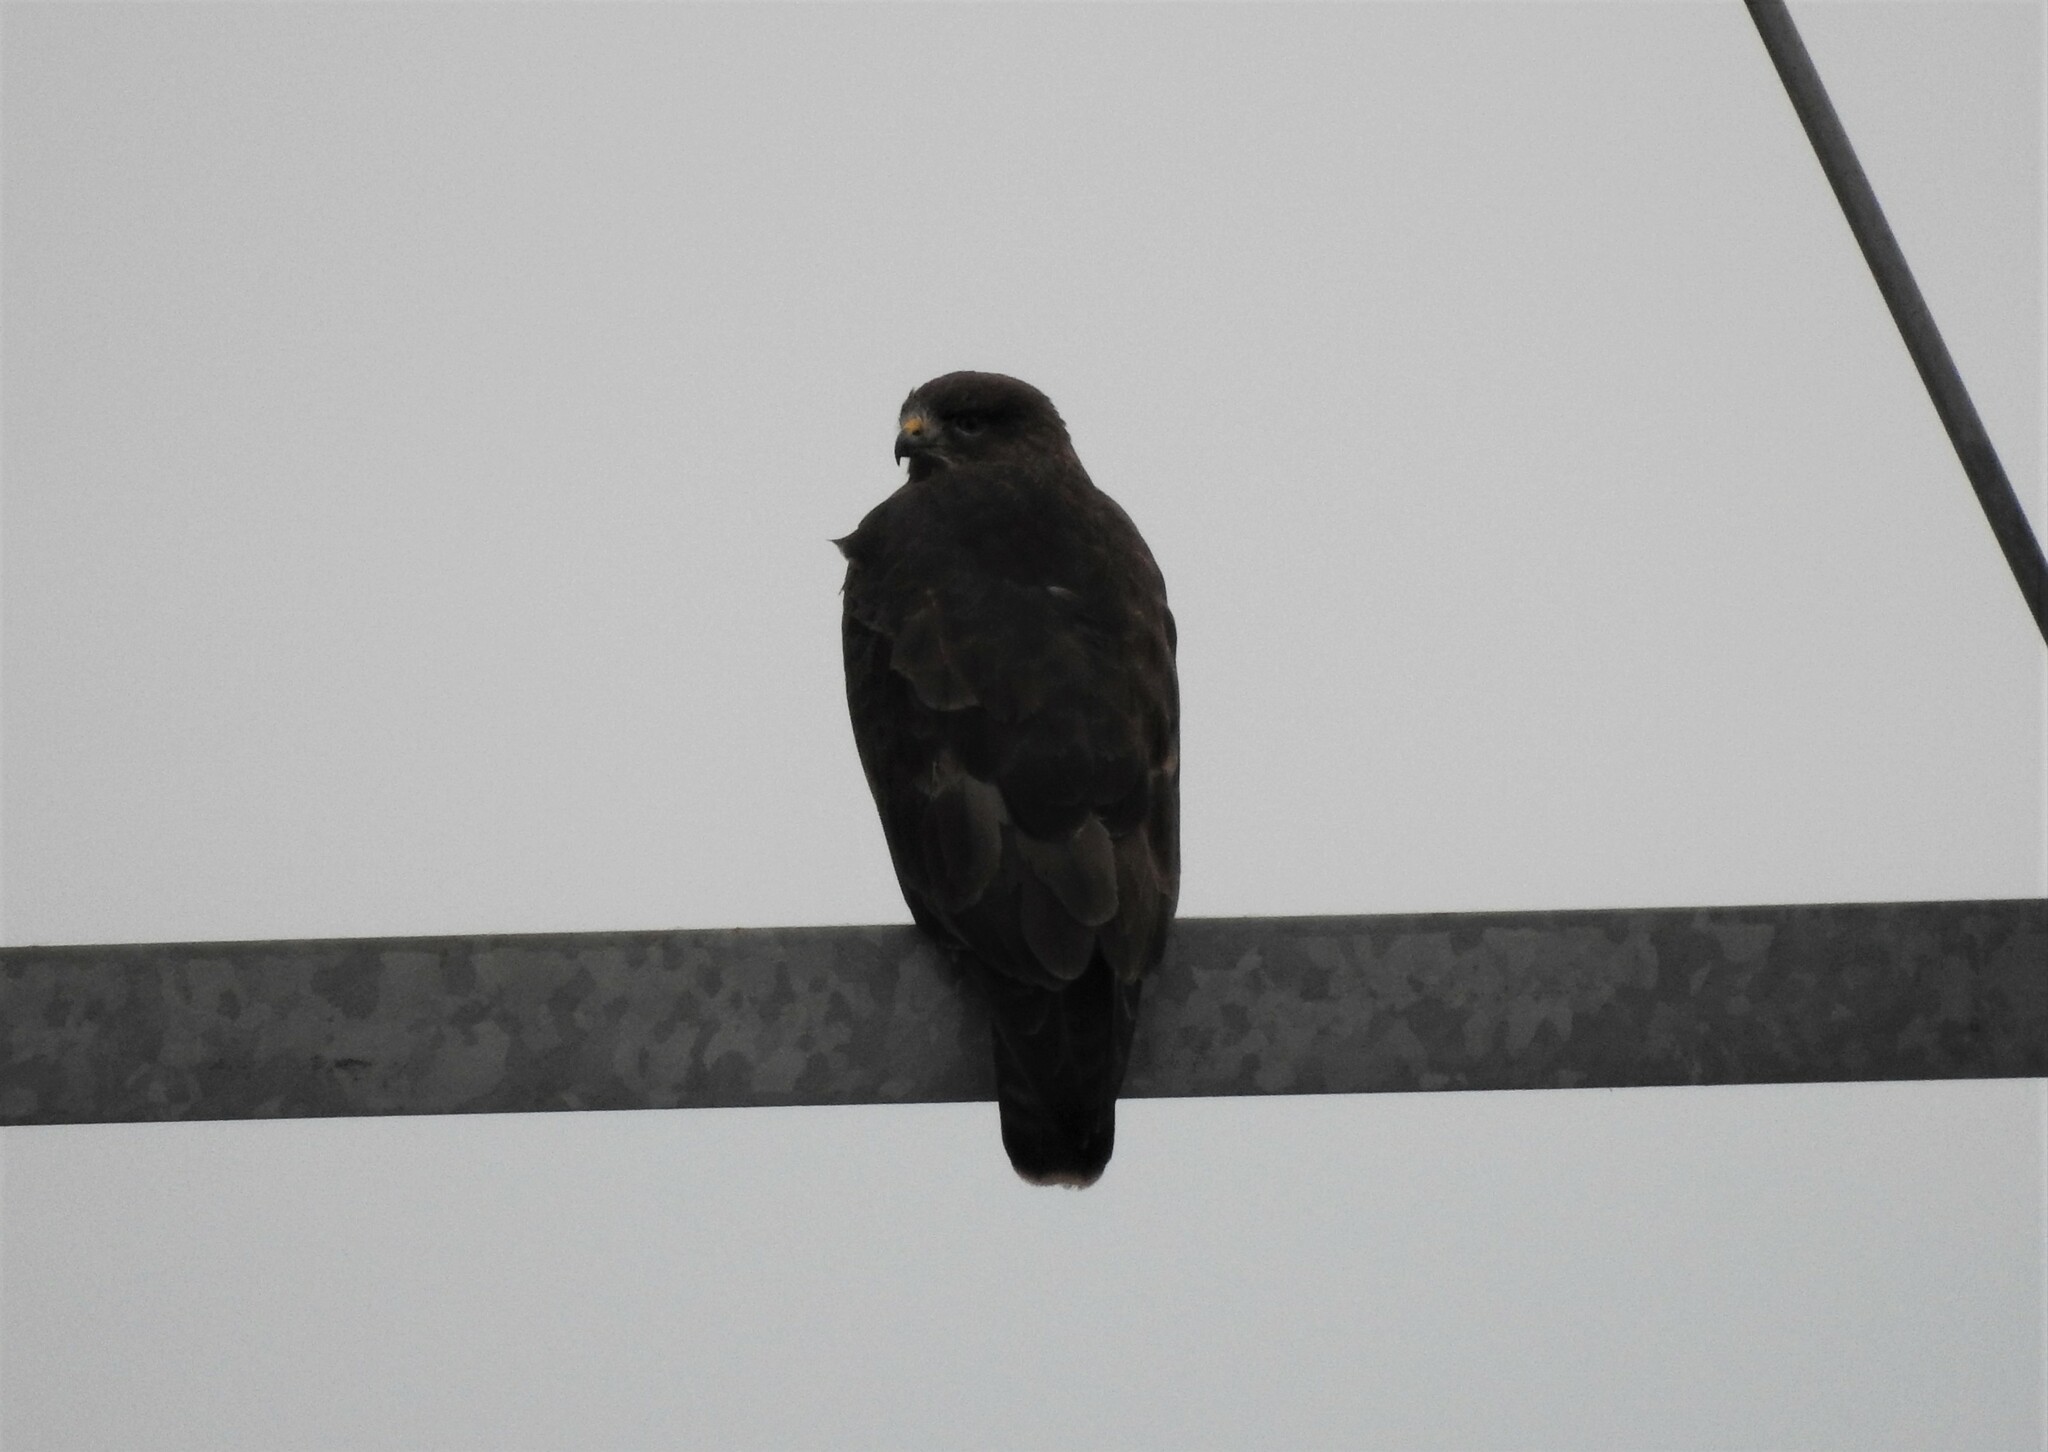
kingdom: Animalia
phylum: Chordata
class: Aves
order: Accipitriformes
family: Accipitridae
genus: Buteo
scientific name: Buteo buteo
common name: Common buzzard
